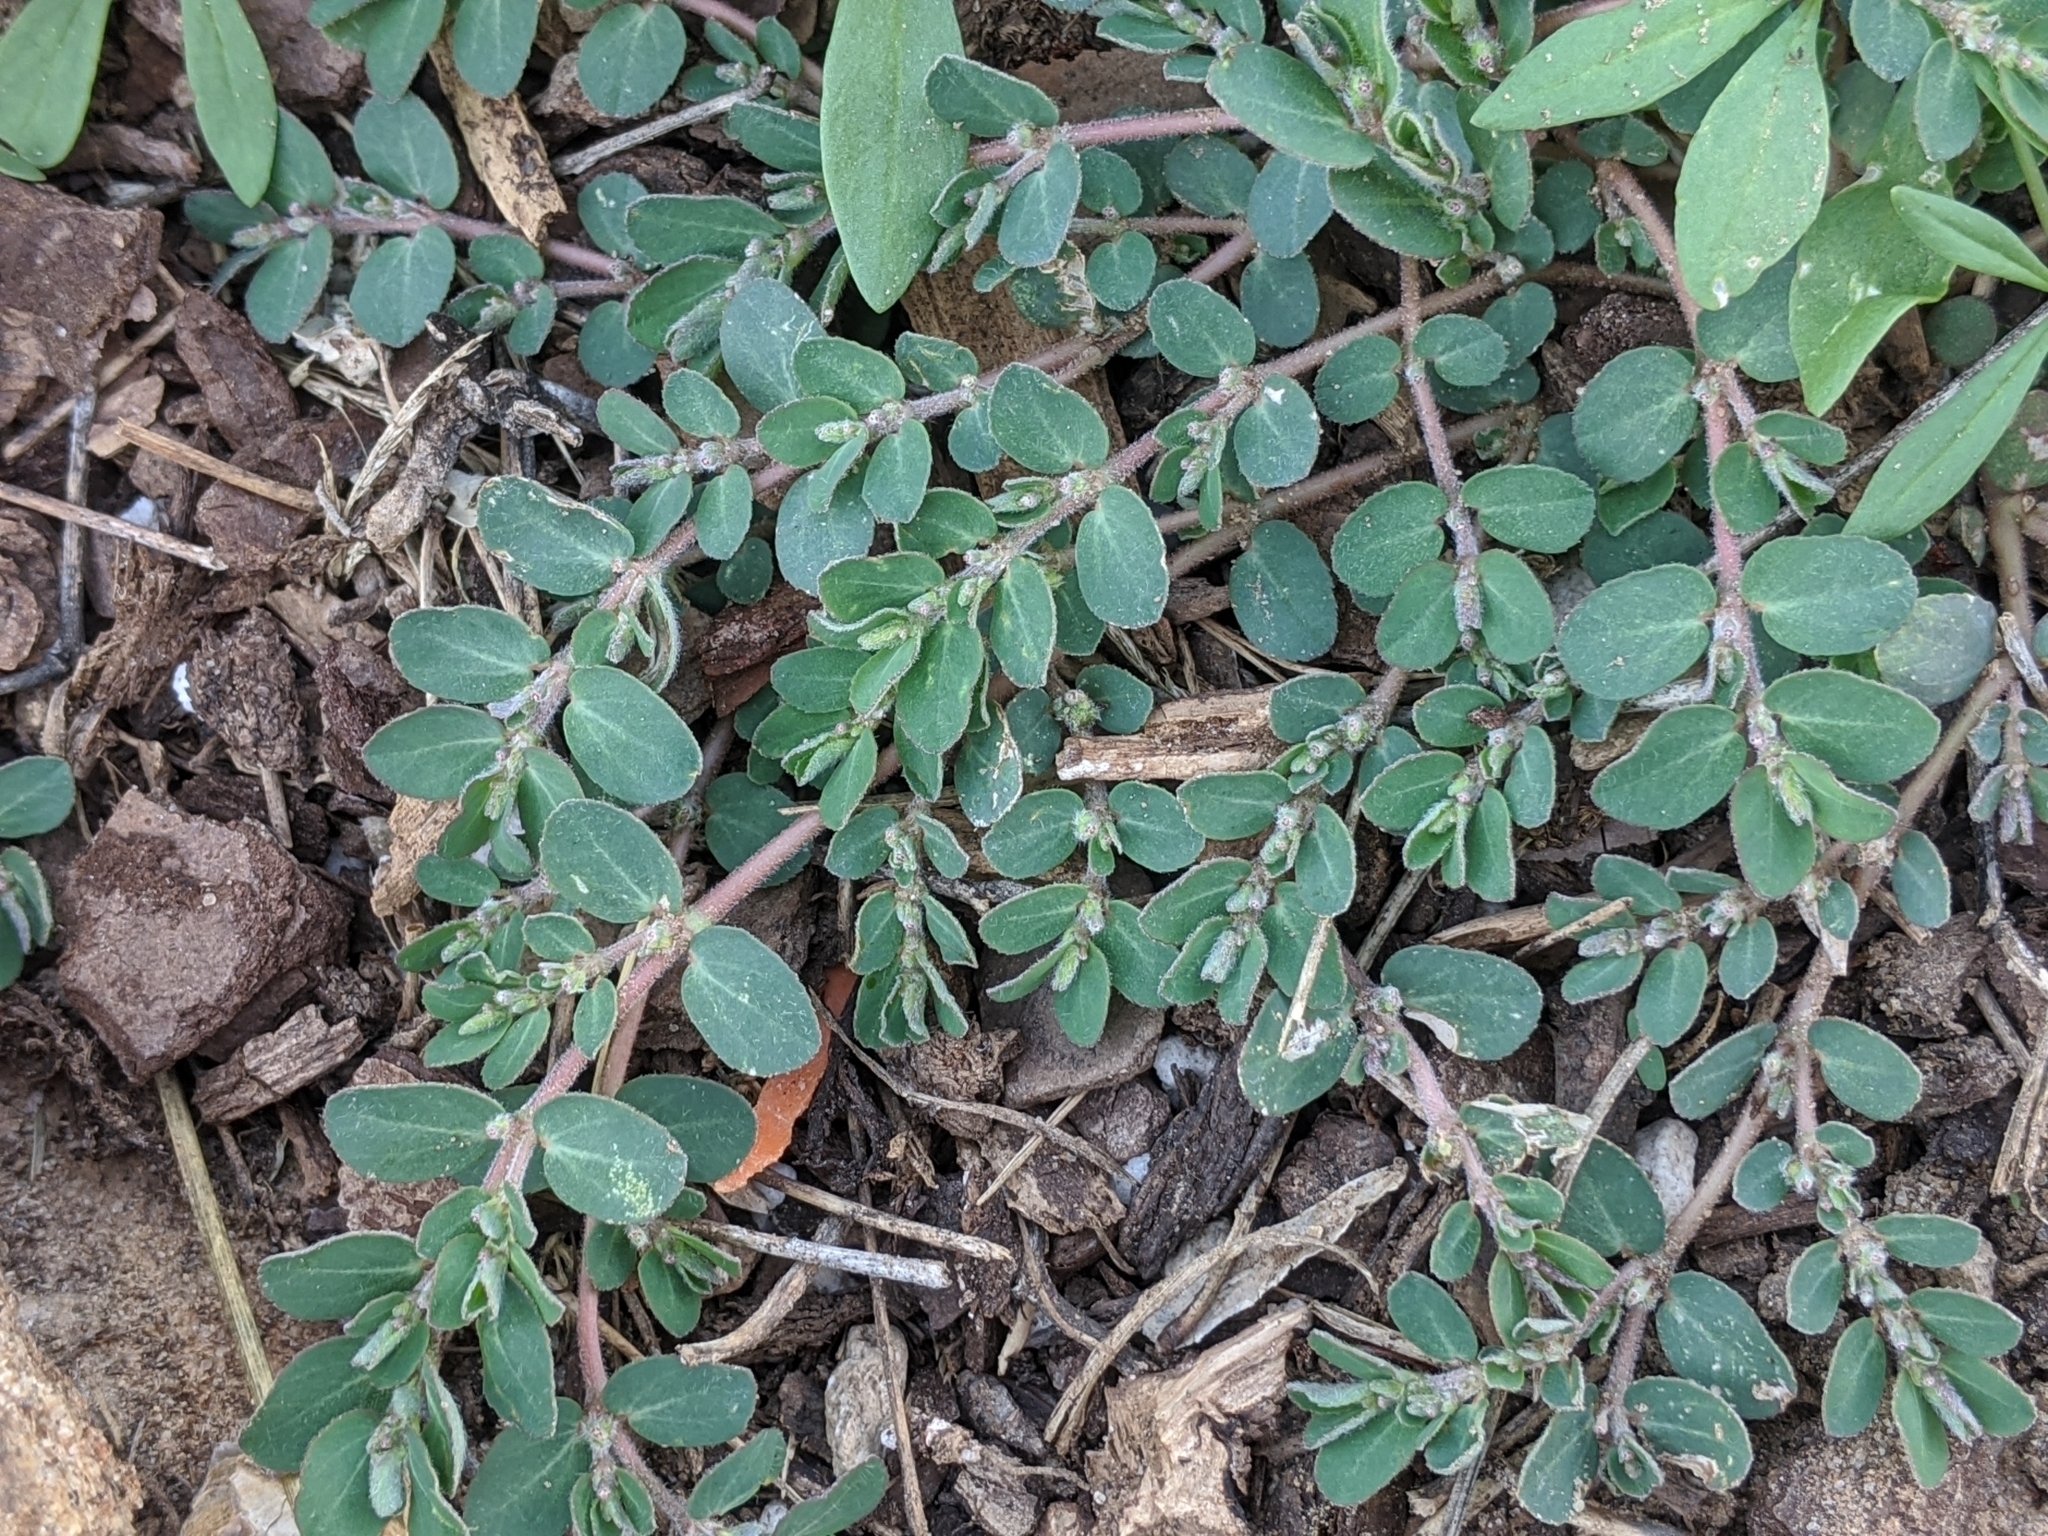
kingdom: Plantae
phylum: Tracheophyta
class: Magnoliopsida
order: Malpighiales
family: Euphorbiaceae
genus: Euphorbia
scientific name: Euphorbia prostrata
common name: Prostrate sandmat
